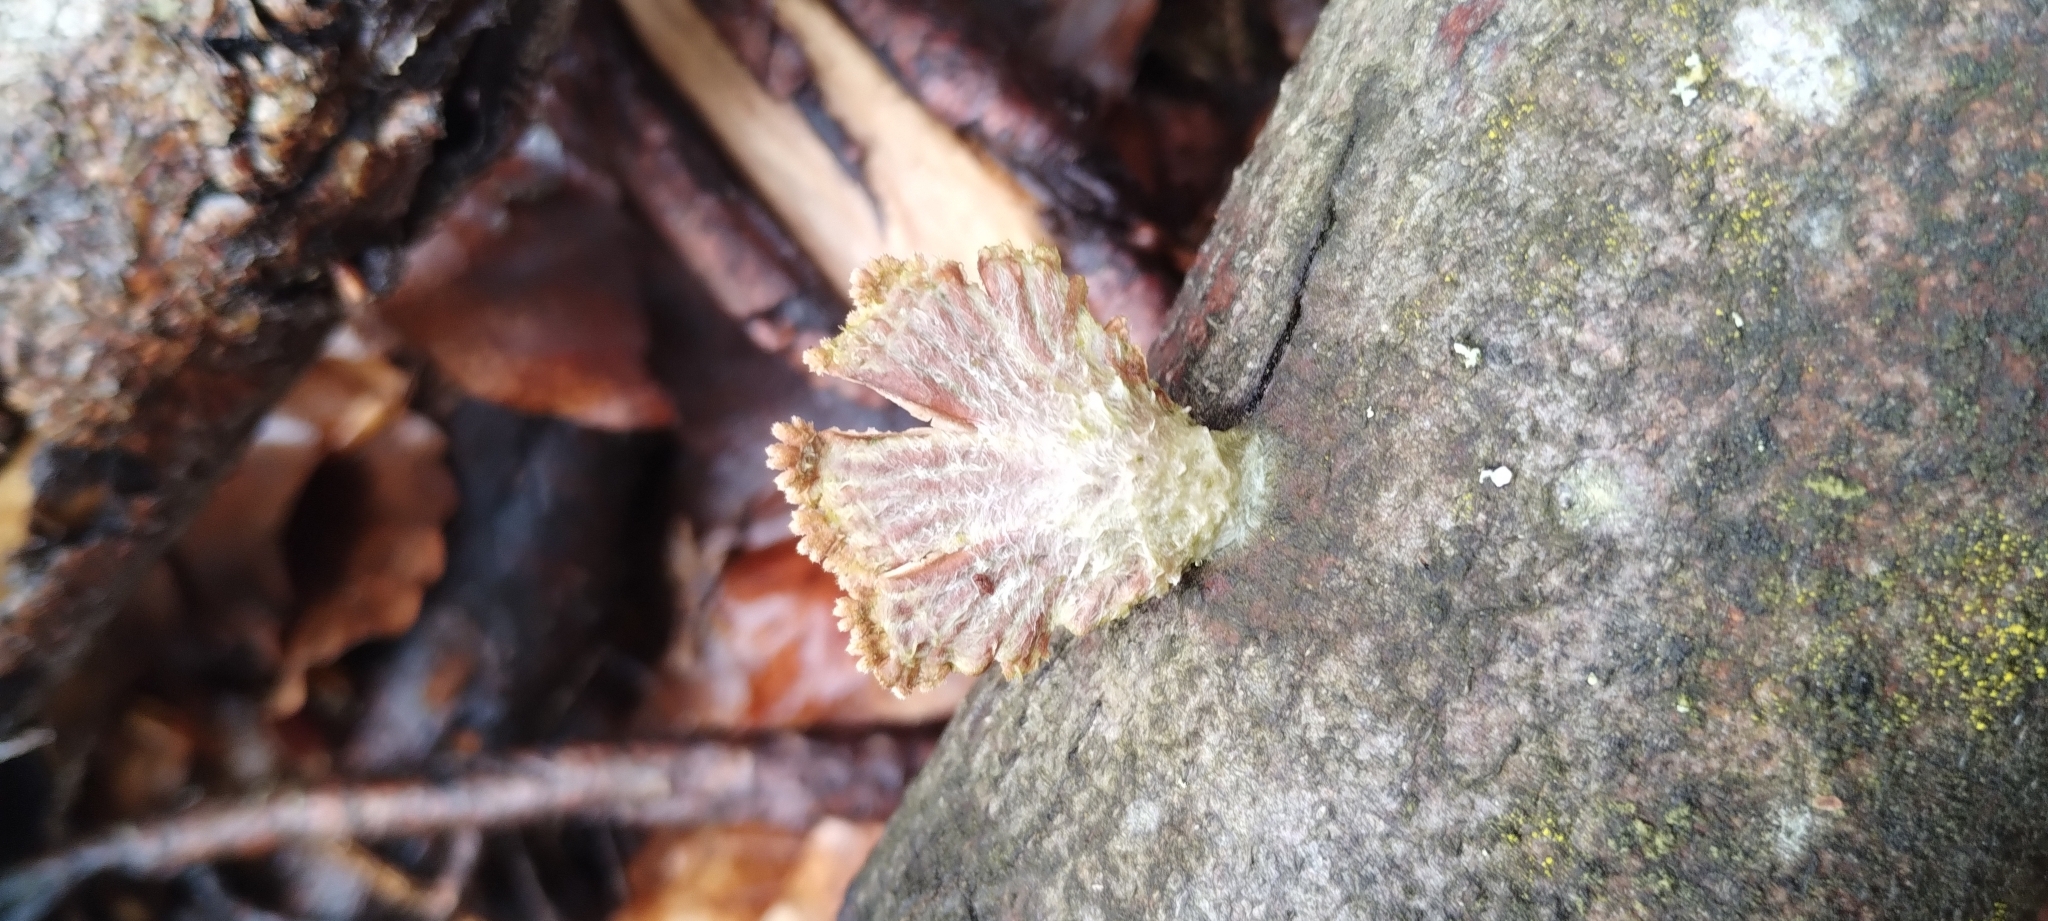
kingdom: Fungi
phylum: Basidiomycota
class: Agaricomycetes
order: Agaricales
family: Schizophyllaceae
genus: Schizophyllum
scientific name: Schizophyllum commune
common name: Common porecrust
